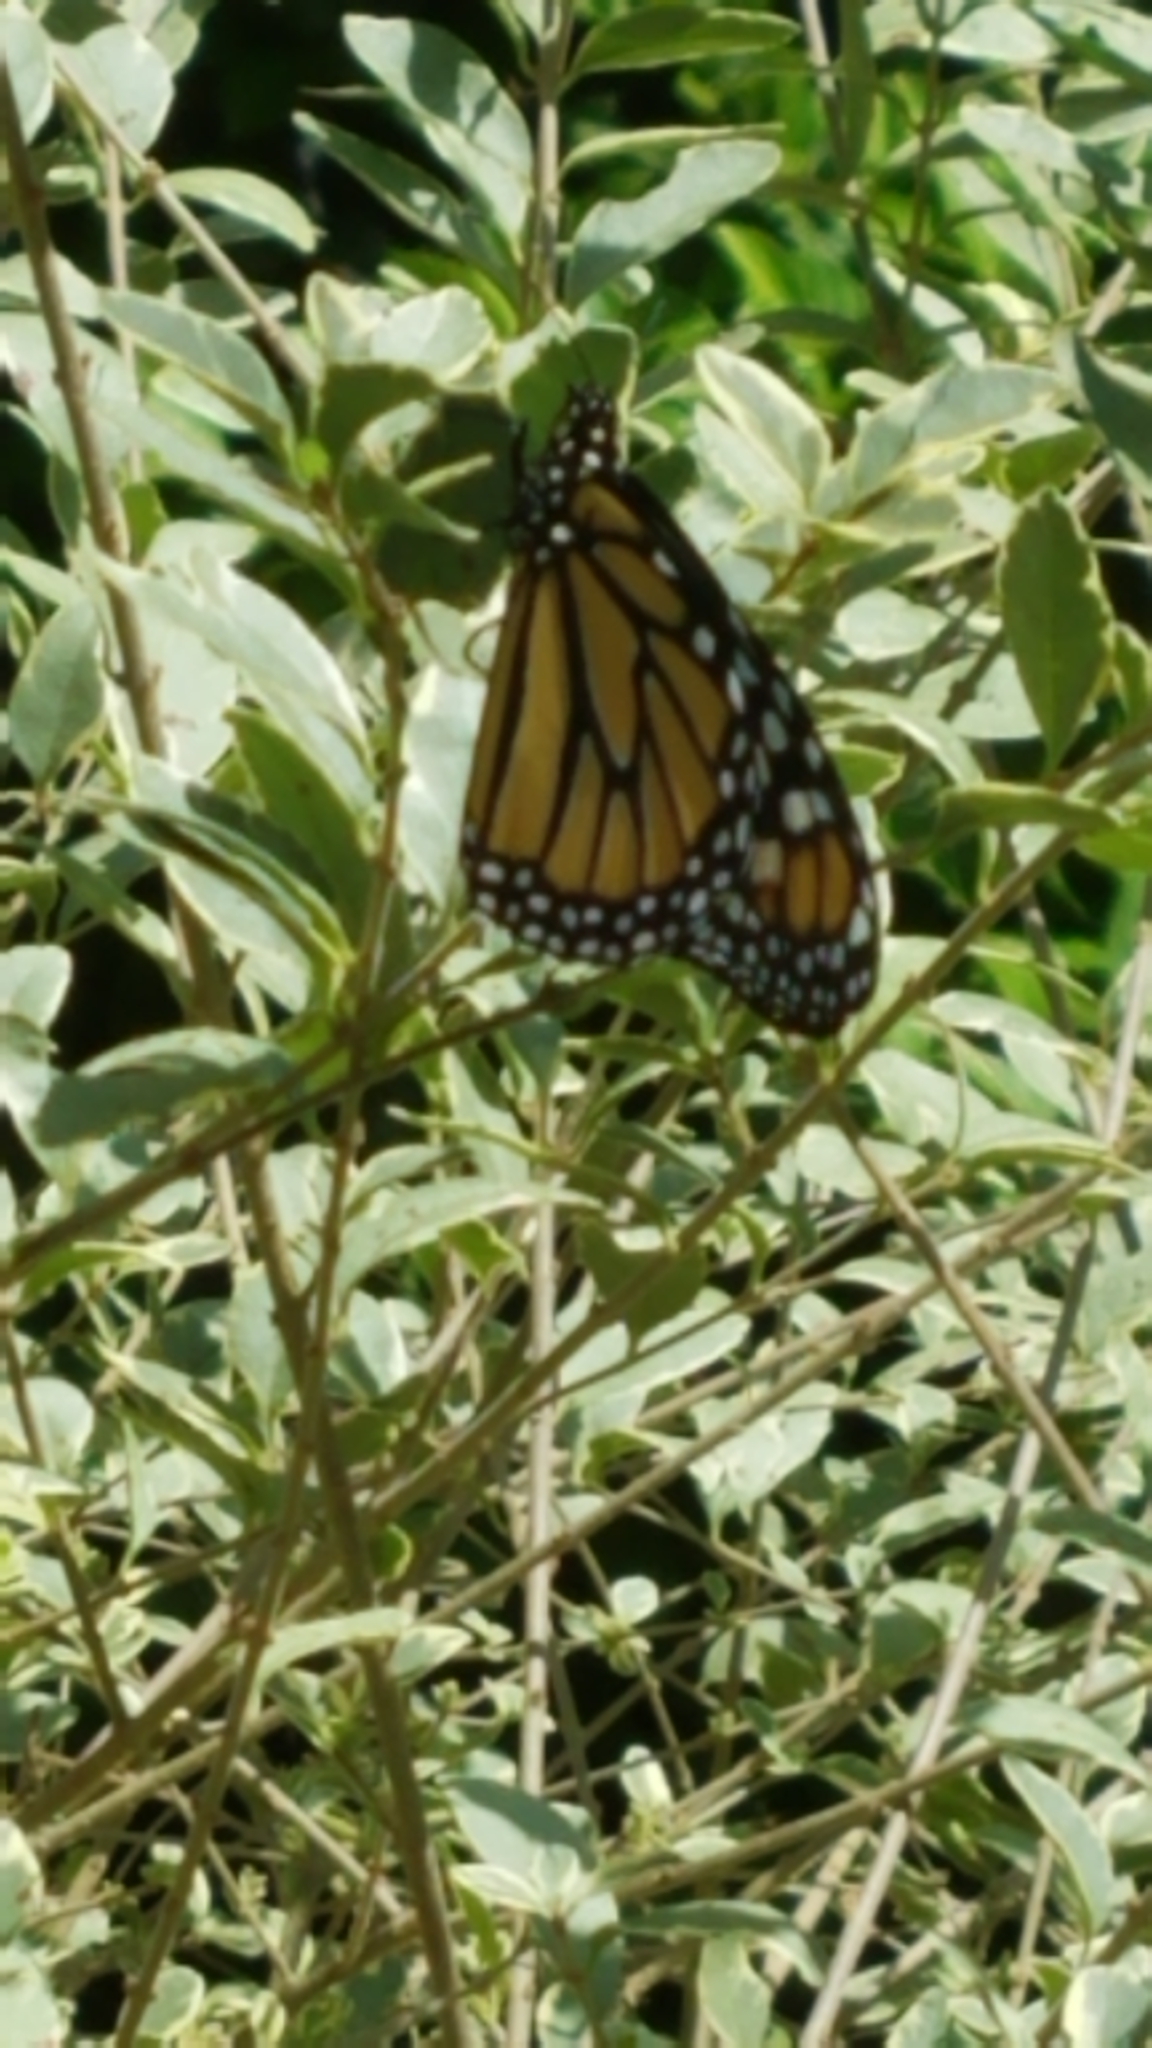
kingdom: Animalia
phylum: Arthropoda
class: Insecta
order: Lepidoptera
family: Nymphalidae
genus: Danaus
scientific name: Danaus plexippus
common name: Monarch
